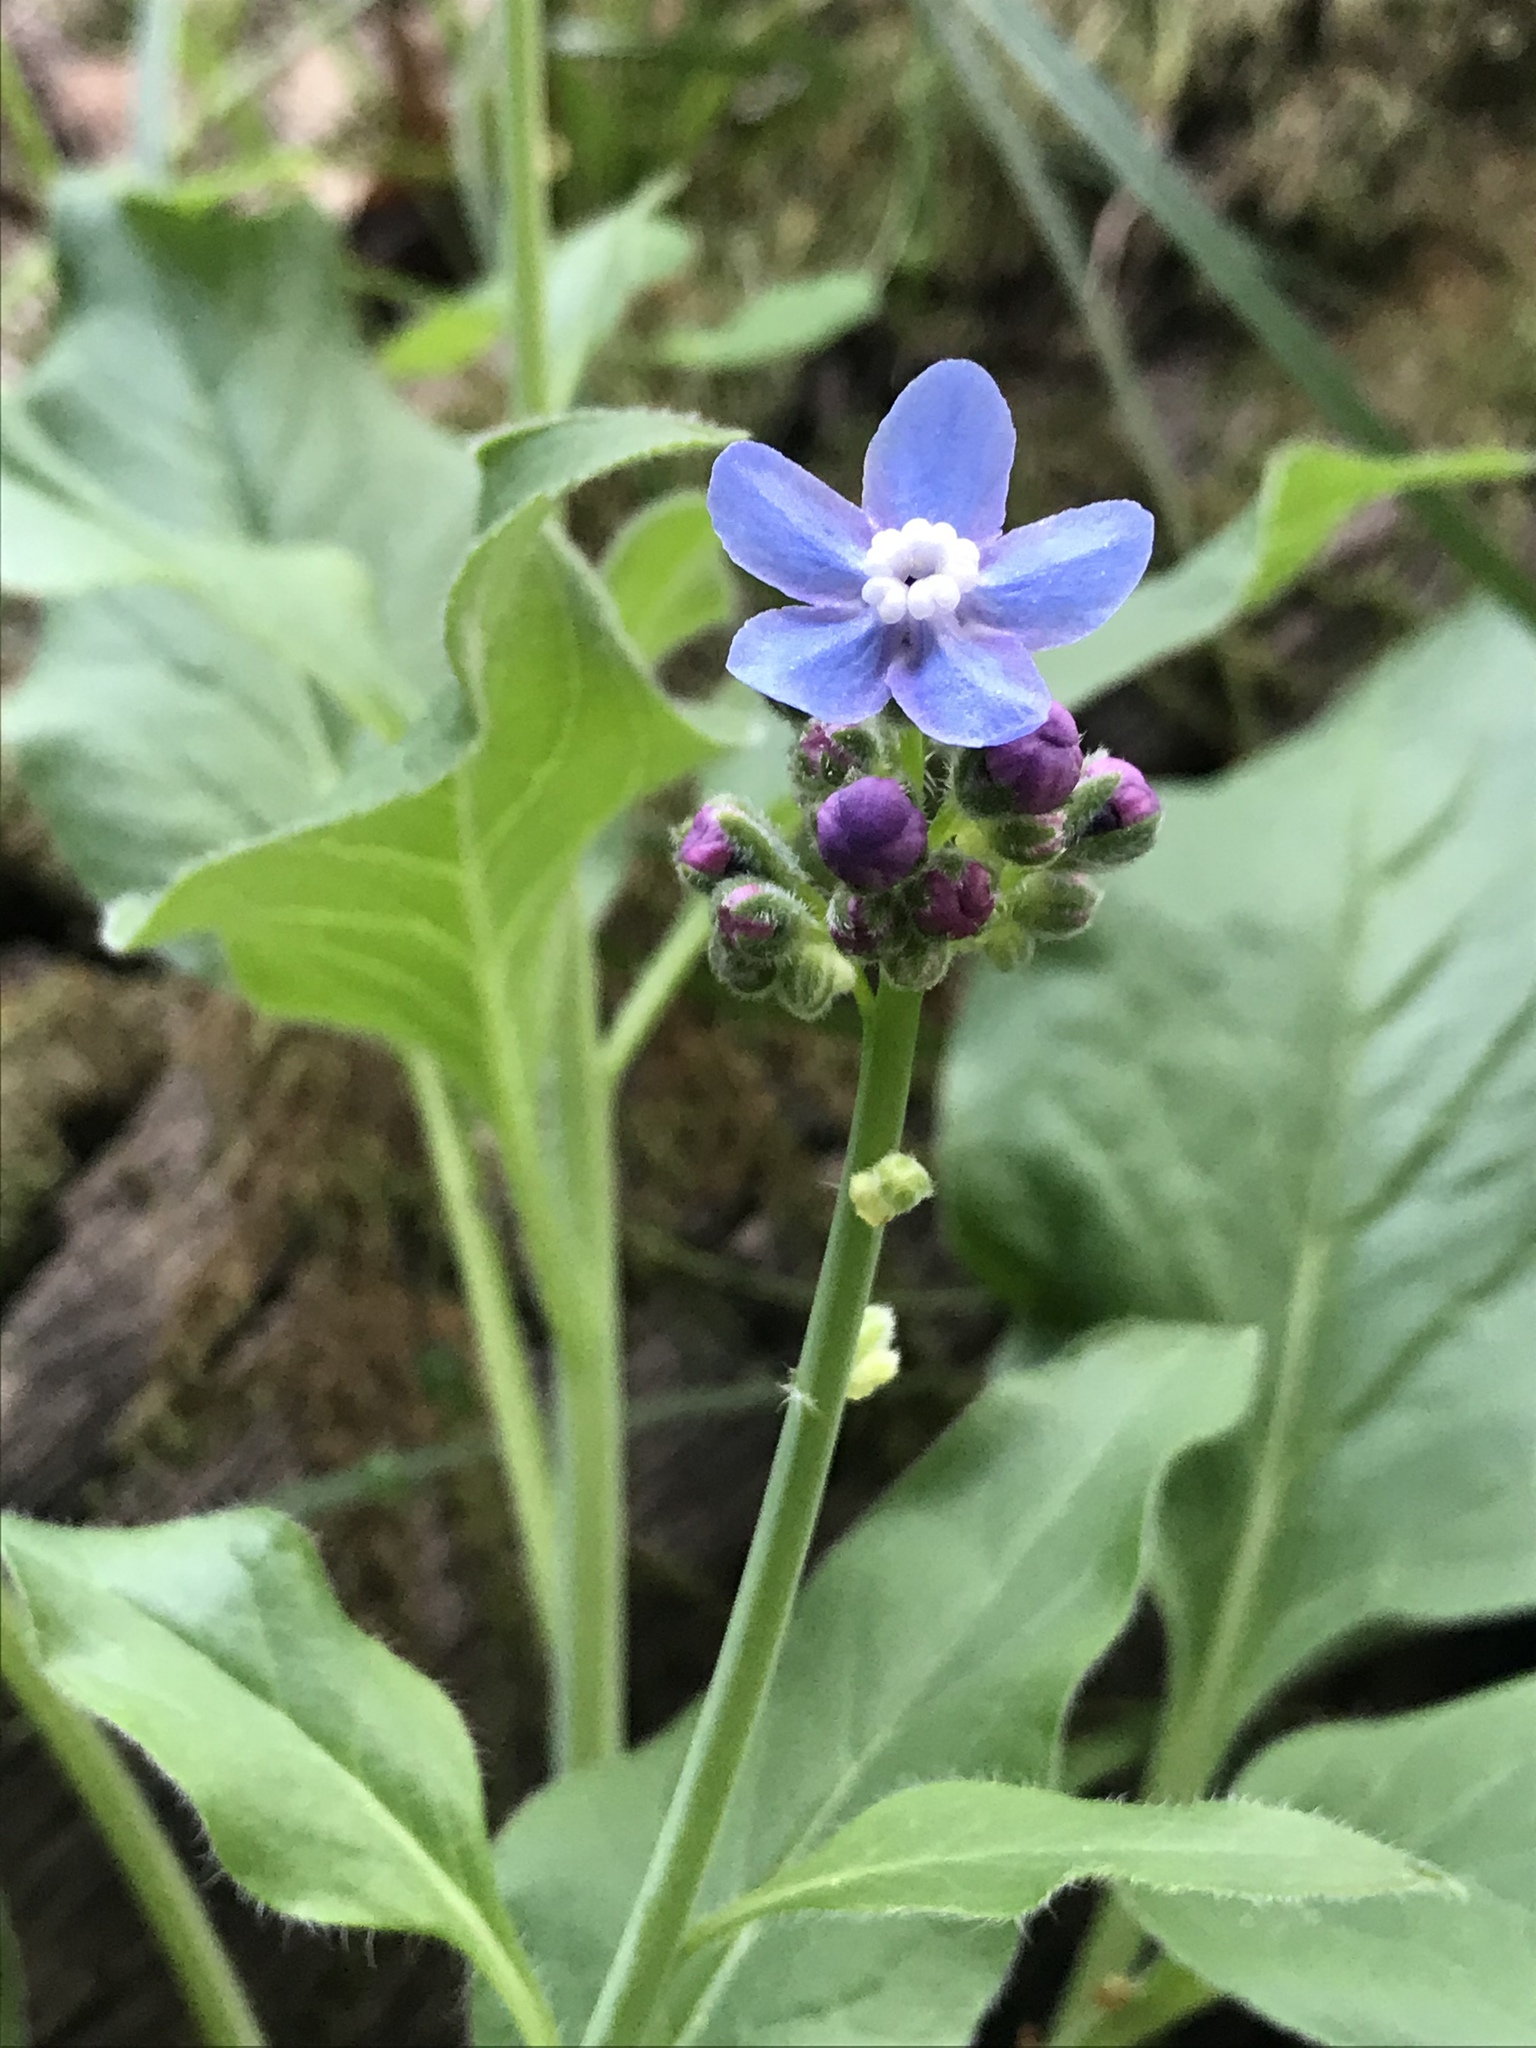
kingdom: Plantae
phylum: Tracheophyta
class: Magnoliopsida
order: Boraginales
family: Boraginaceae
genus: Adelinia
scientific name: Adelinia grande
